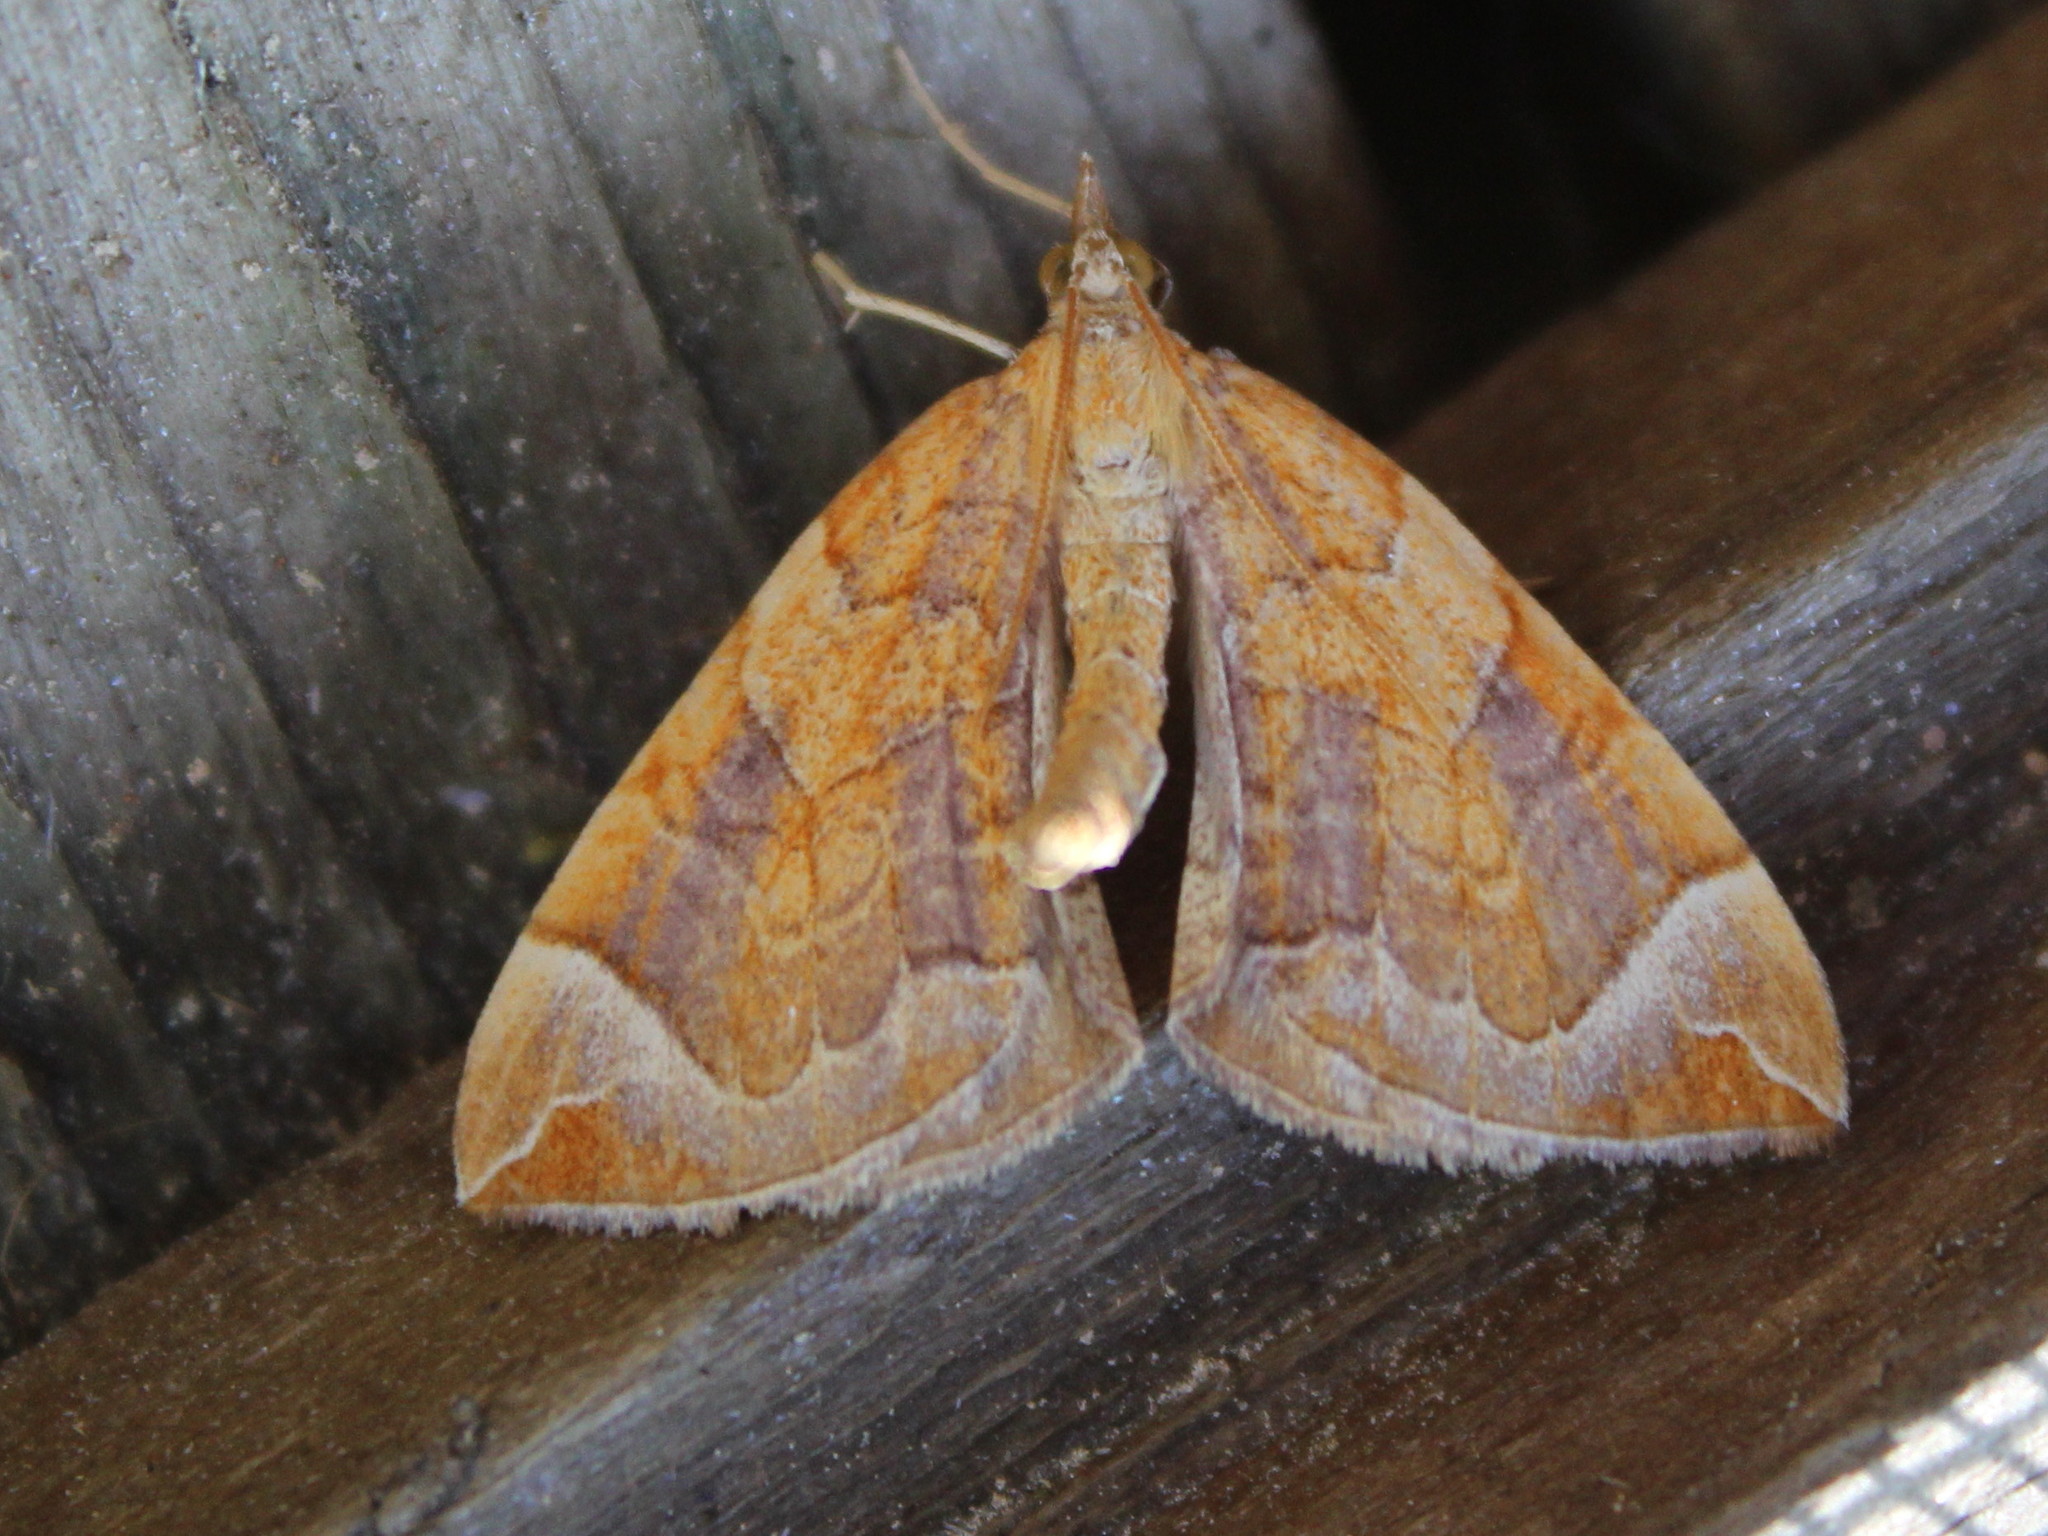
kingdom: Animalia
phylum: Arthropoda
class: Insecta
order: Lepidoptera
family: Geometridae
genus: Eulithis
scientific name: Eulithis testata
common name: Chevron
